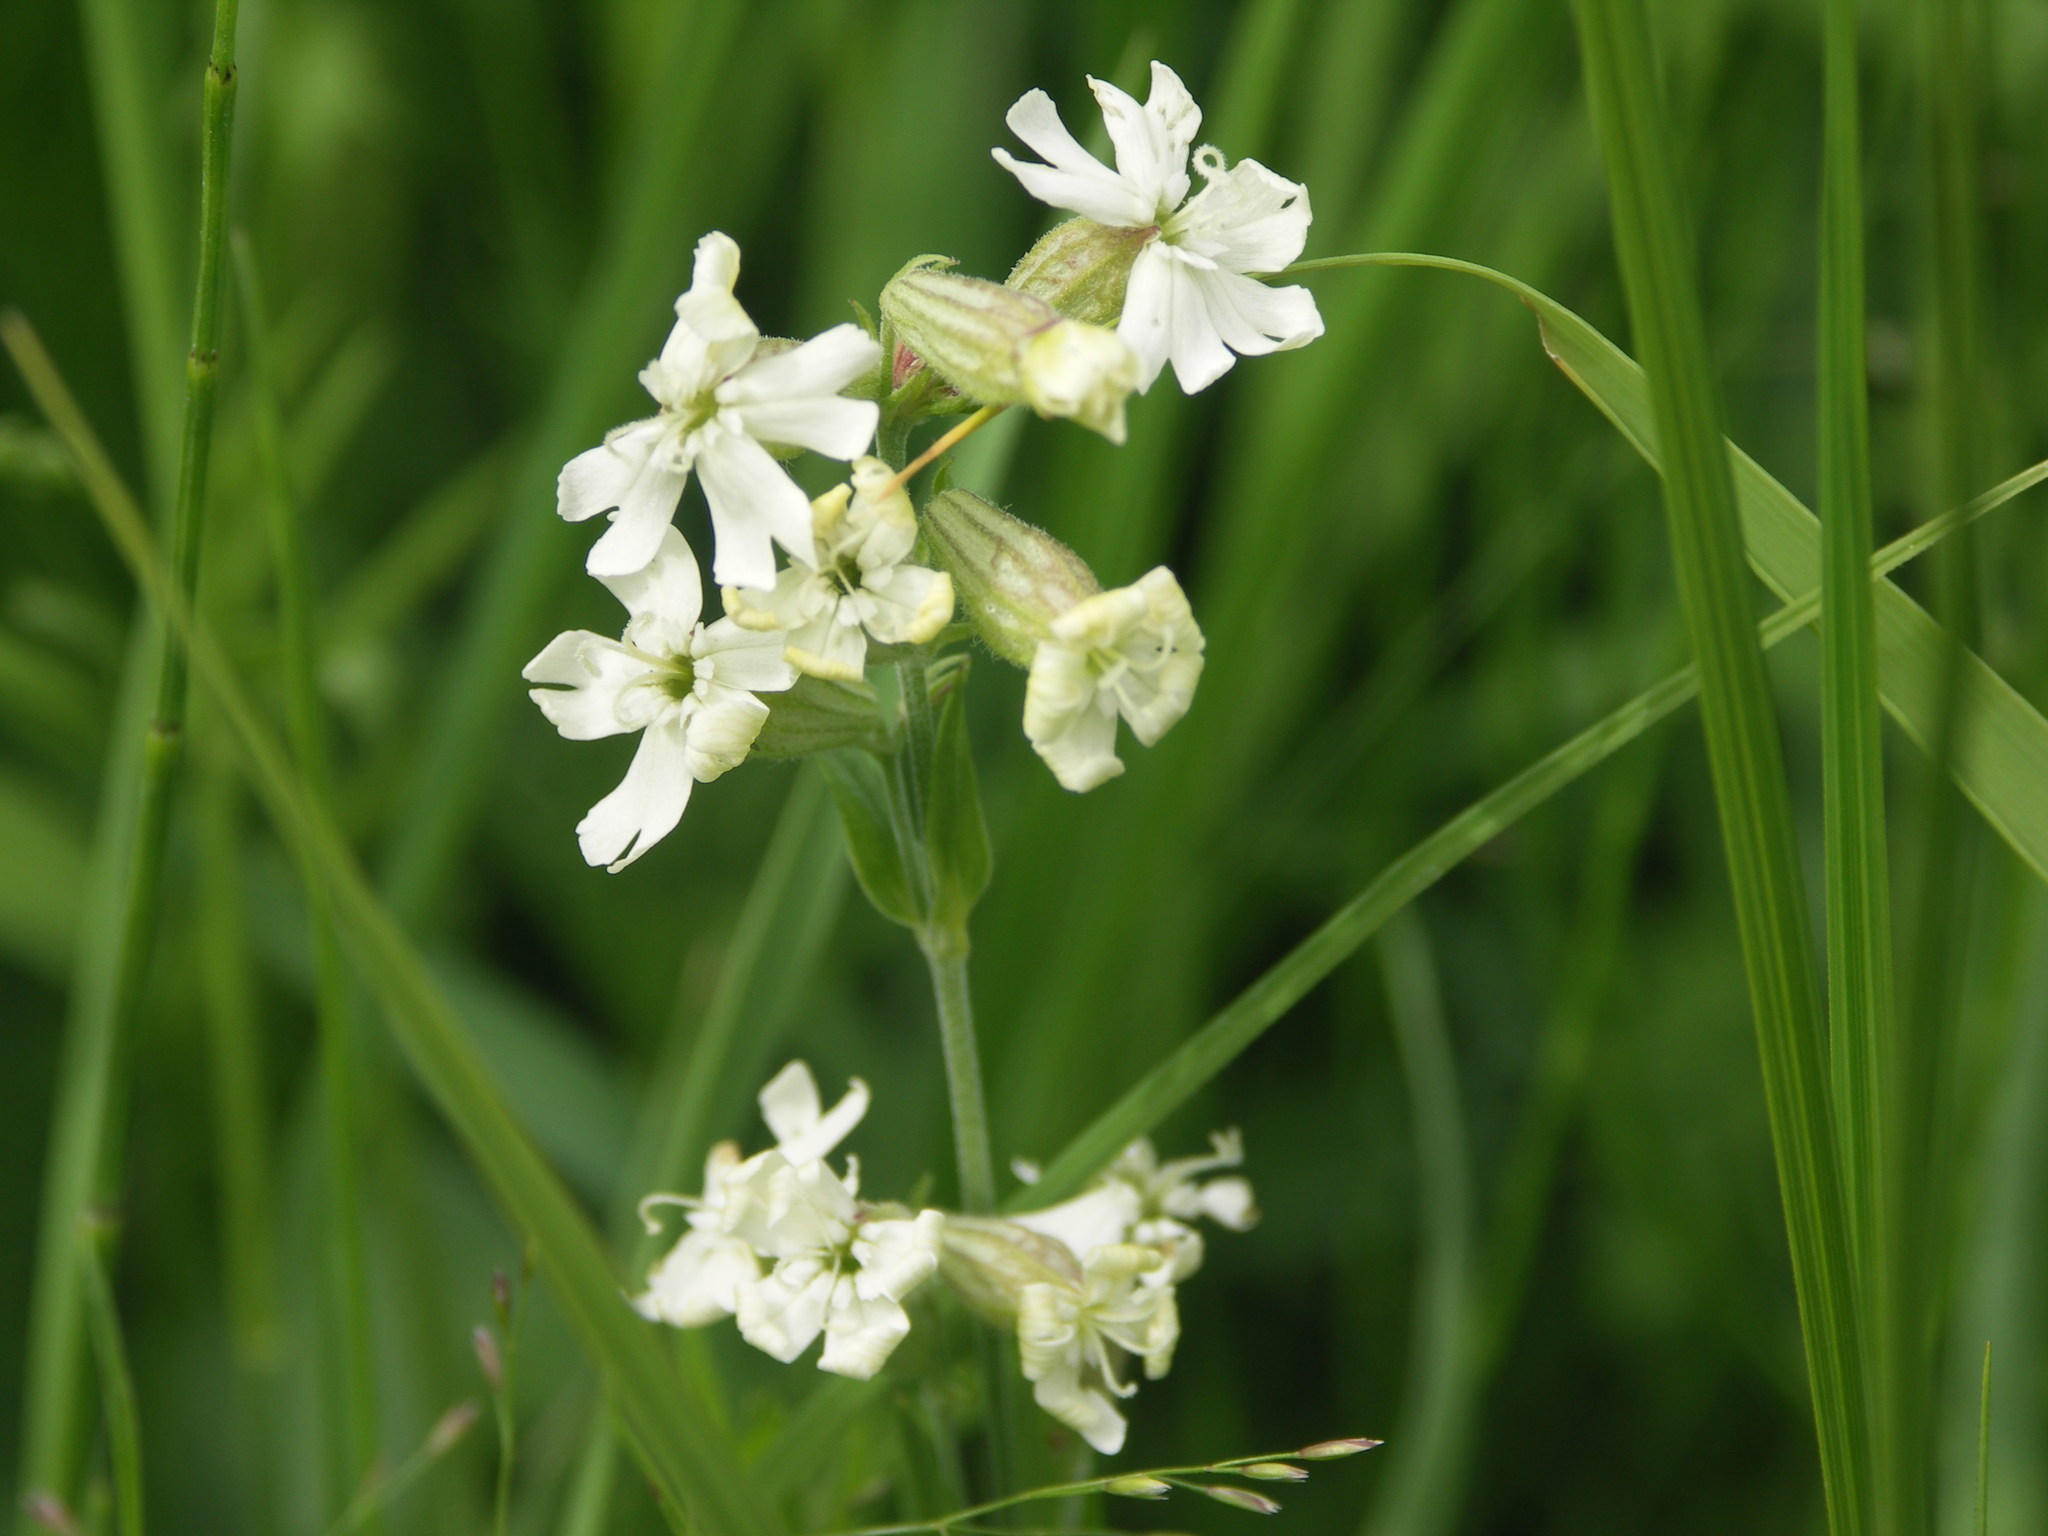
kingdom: Plantae
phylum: Tracheophyta
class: Magnoliopsida
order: Caryophyllales
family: Caryophyllaceae
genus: Silene
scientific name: Silene repens
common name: Pink campion
